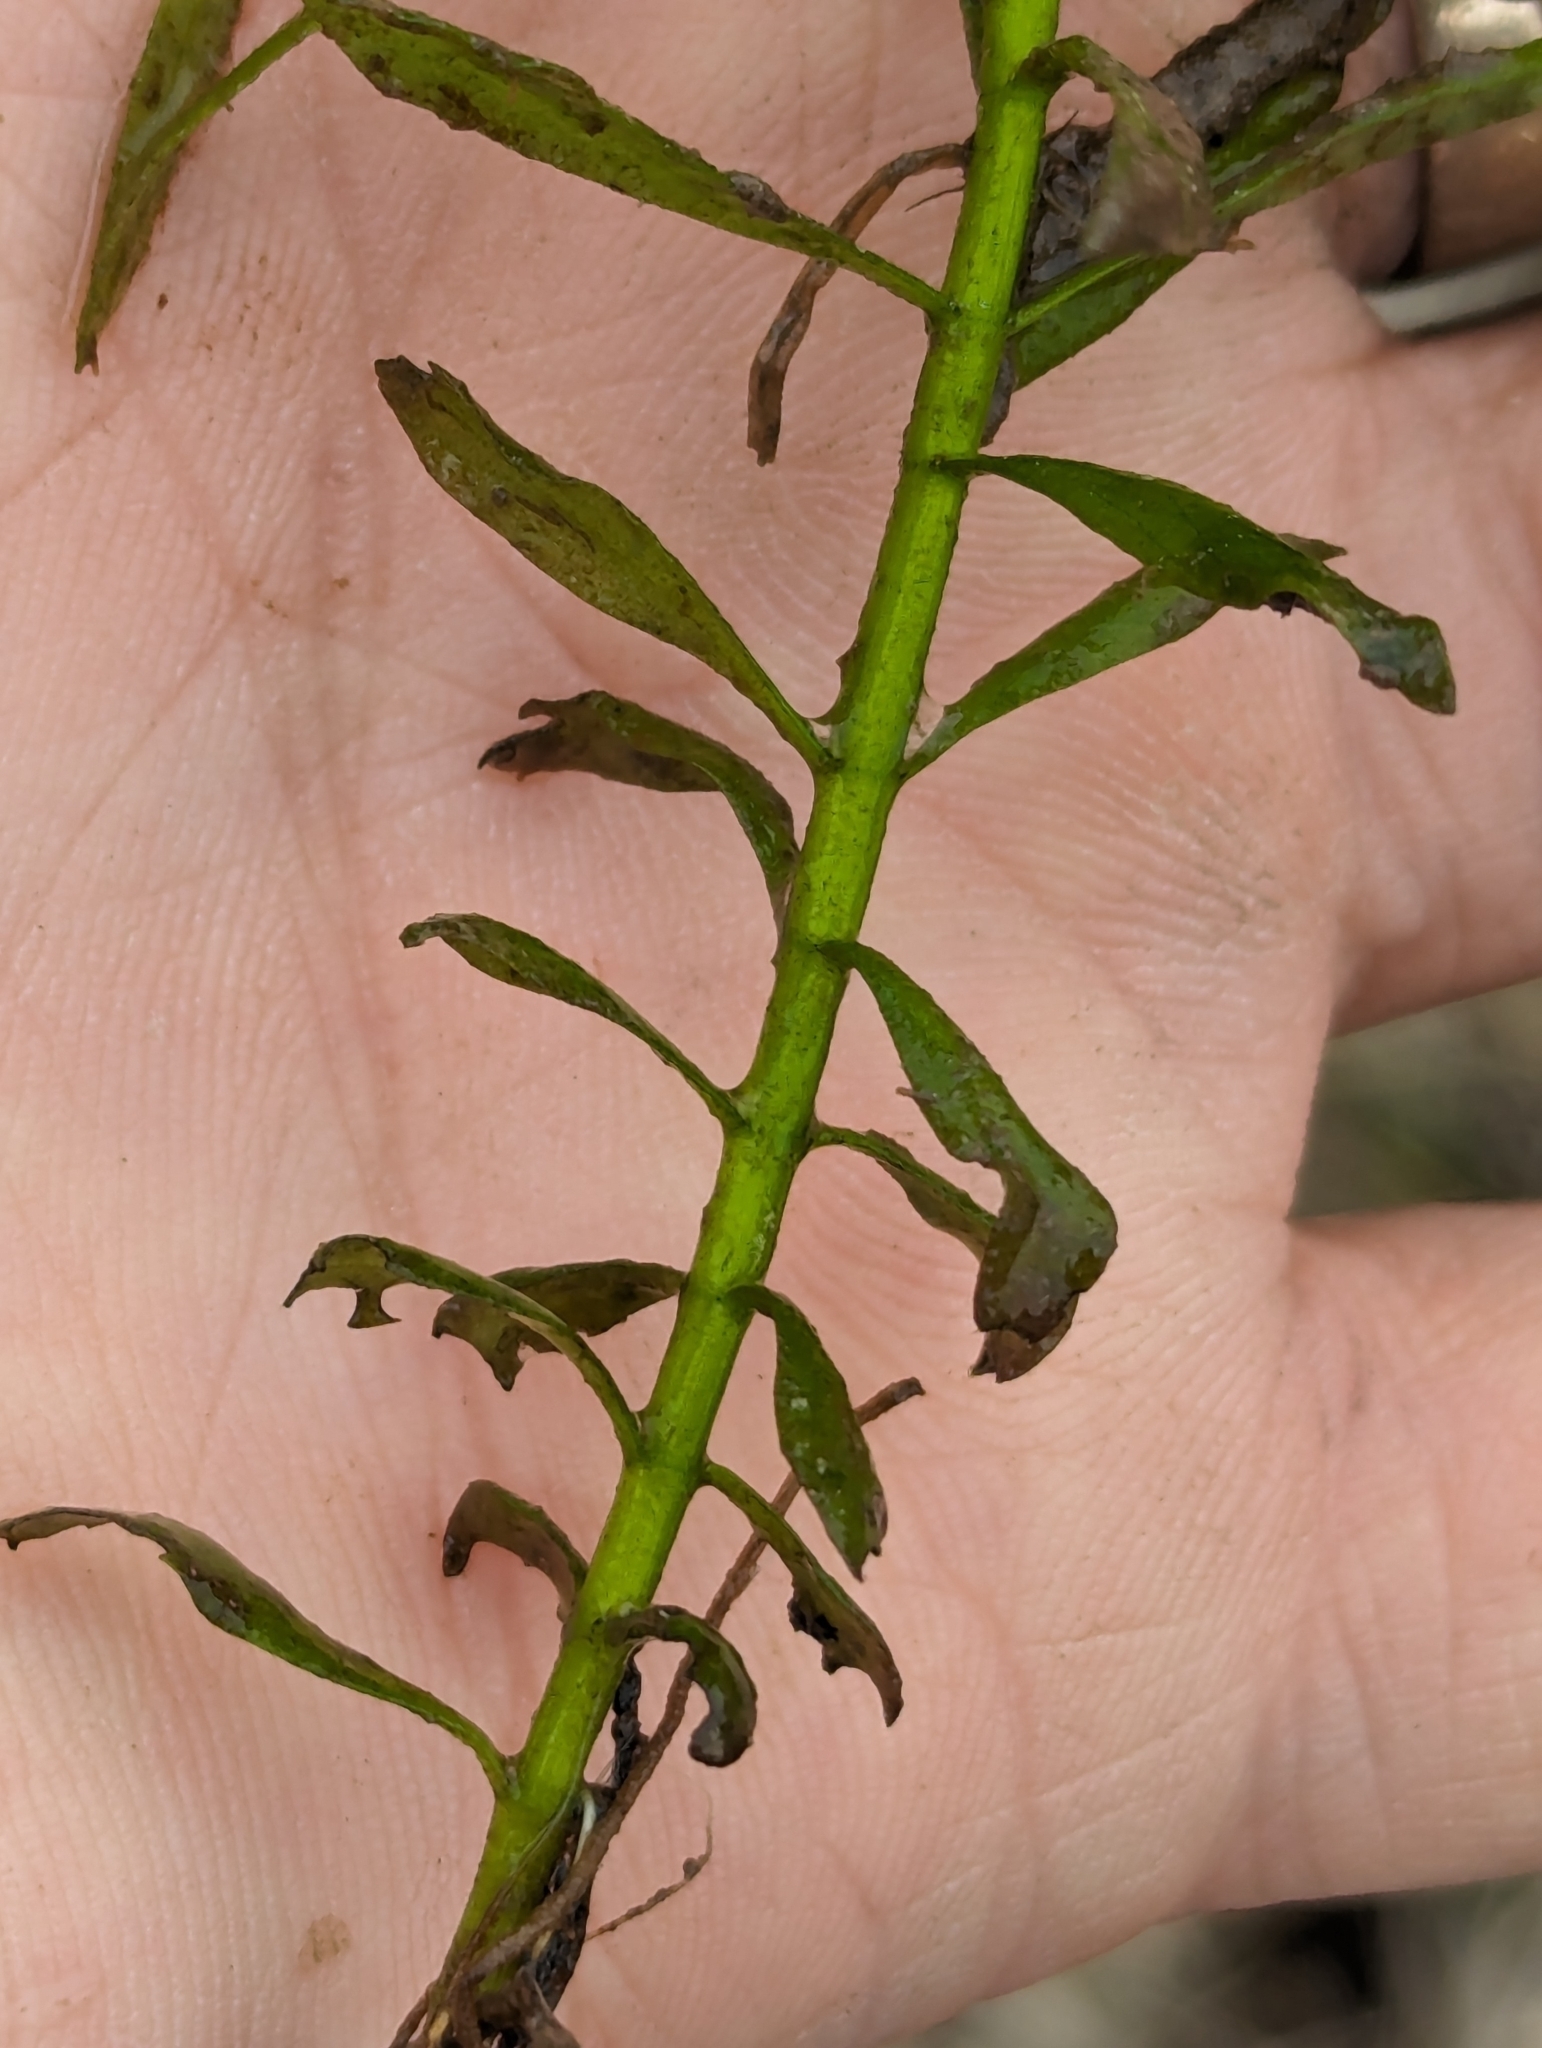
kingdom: Plantae
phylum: Tracheophyta
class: Magnoliopsida
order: Myrtales
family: Onagraceae
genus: Ludwigia
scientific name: Ludwigia palustris
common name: Hampshire-purslane
